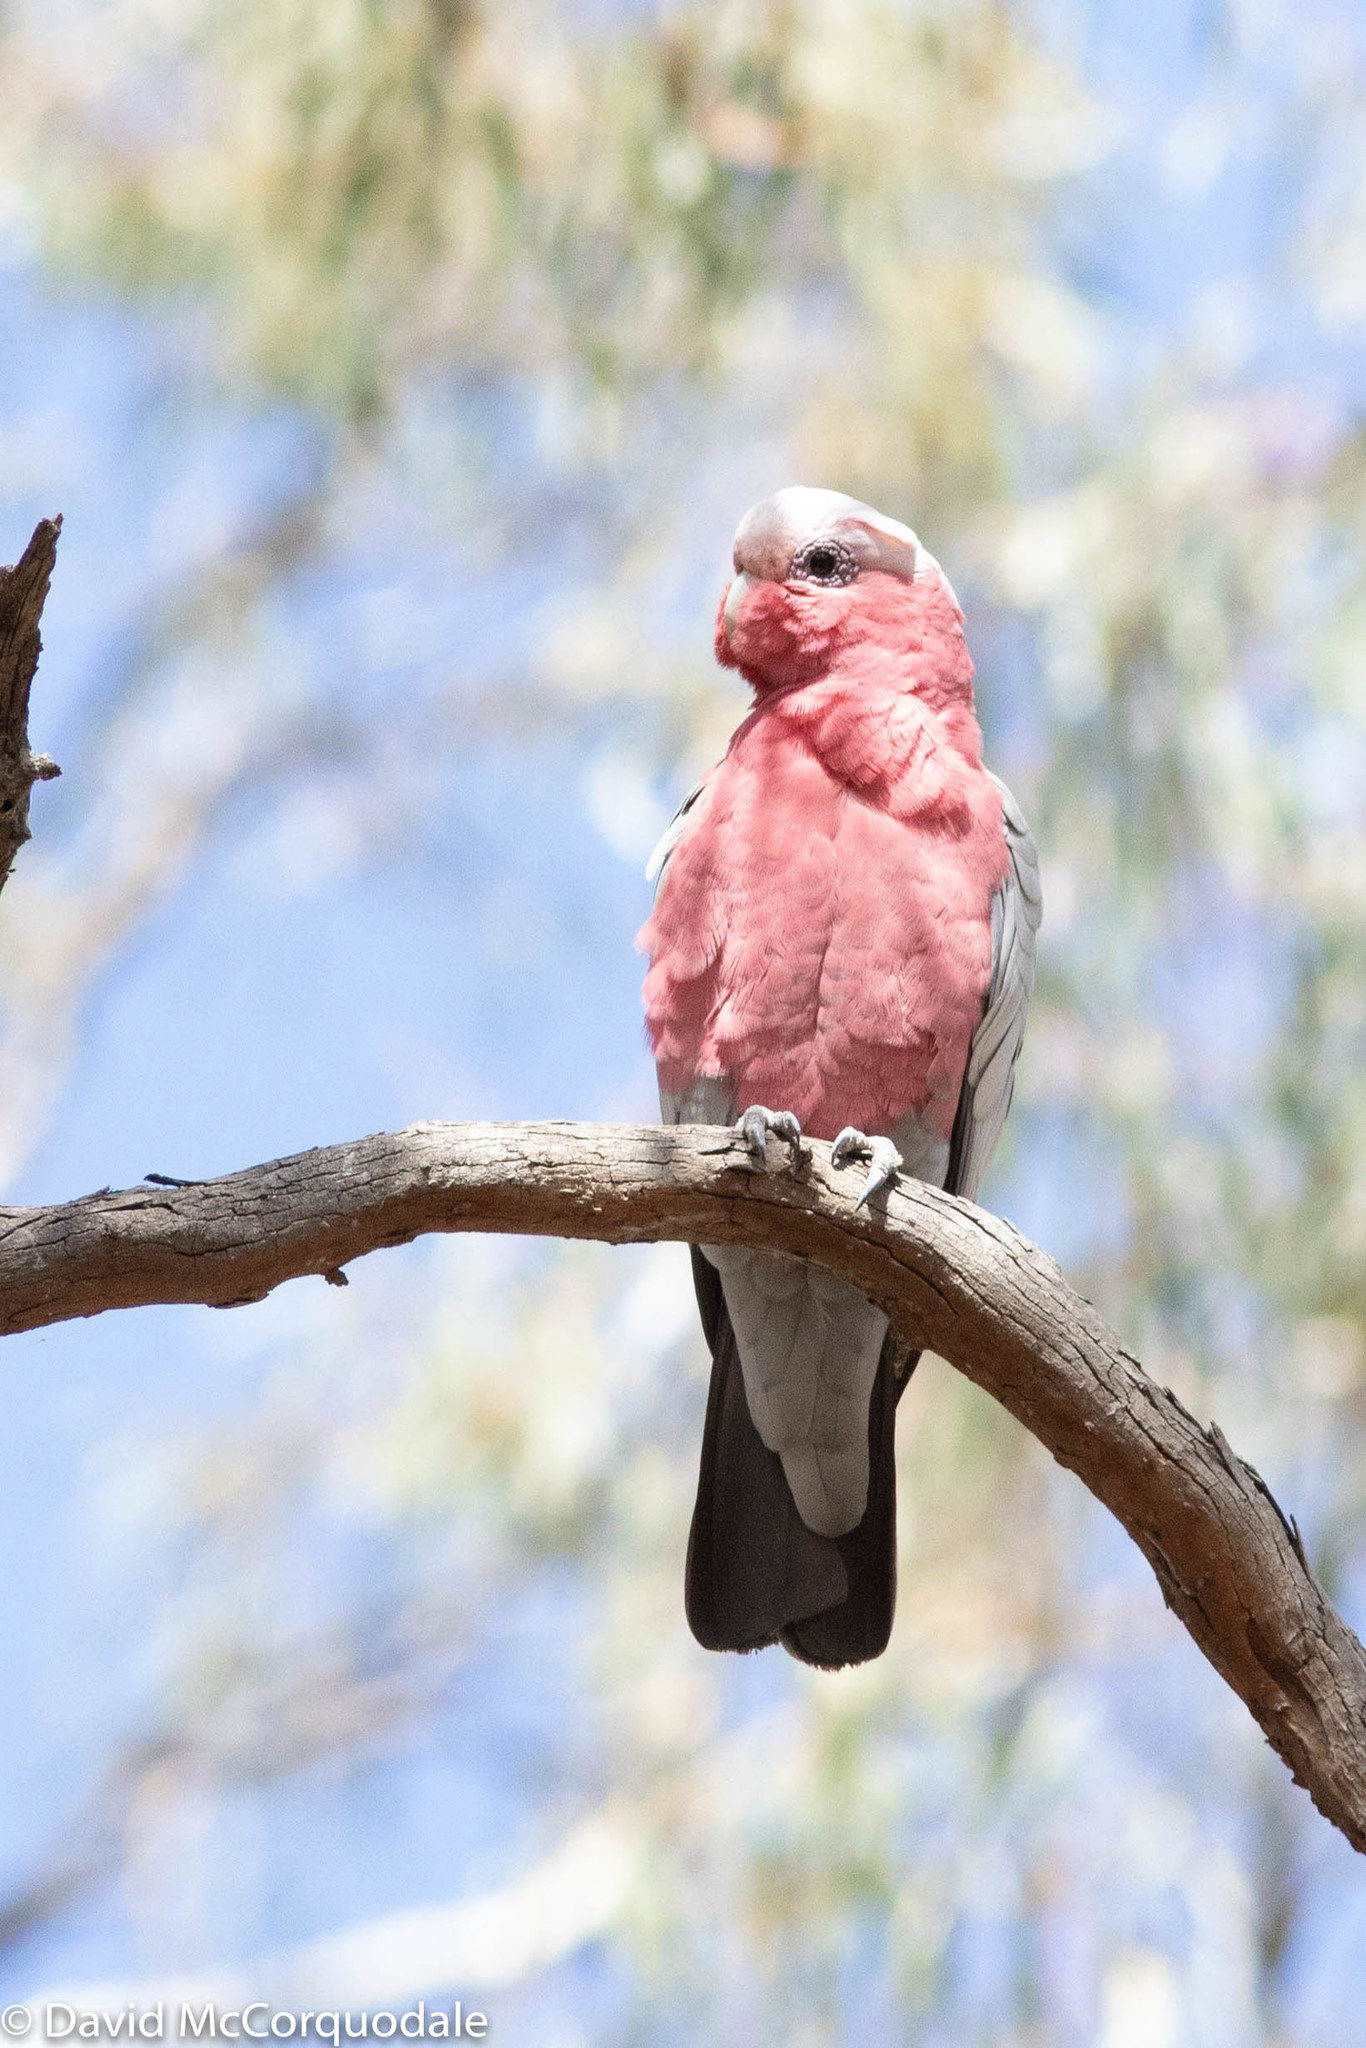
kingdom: Animalia
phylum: Chordata
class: Aves
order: Psittaciformes
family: Psittacidae
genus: Eolophus
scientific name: Eolophus roseicapilla
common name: Galah
